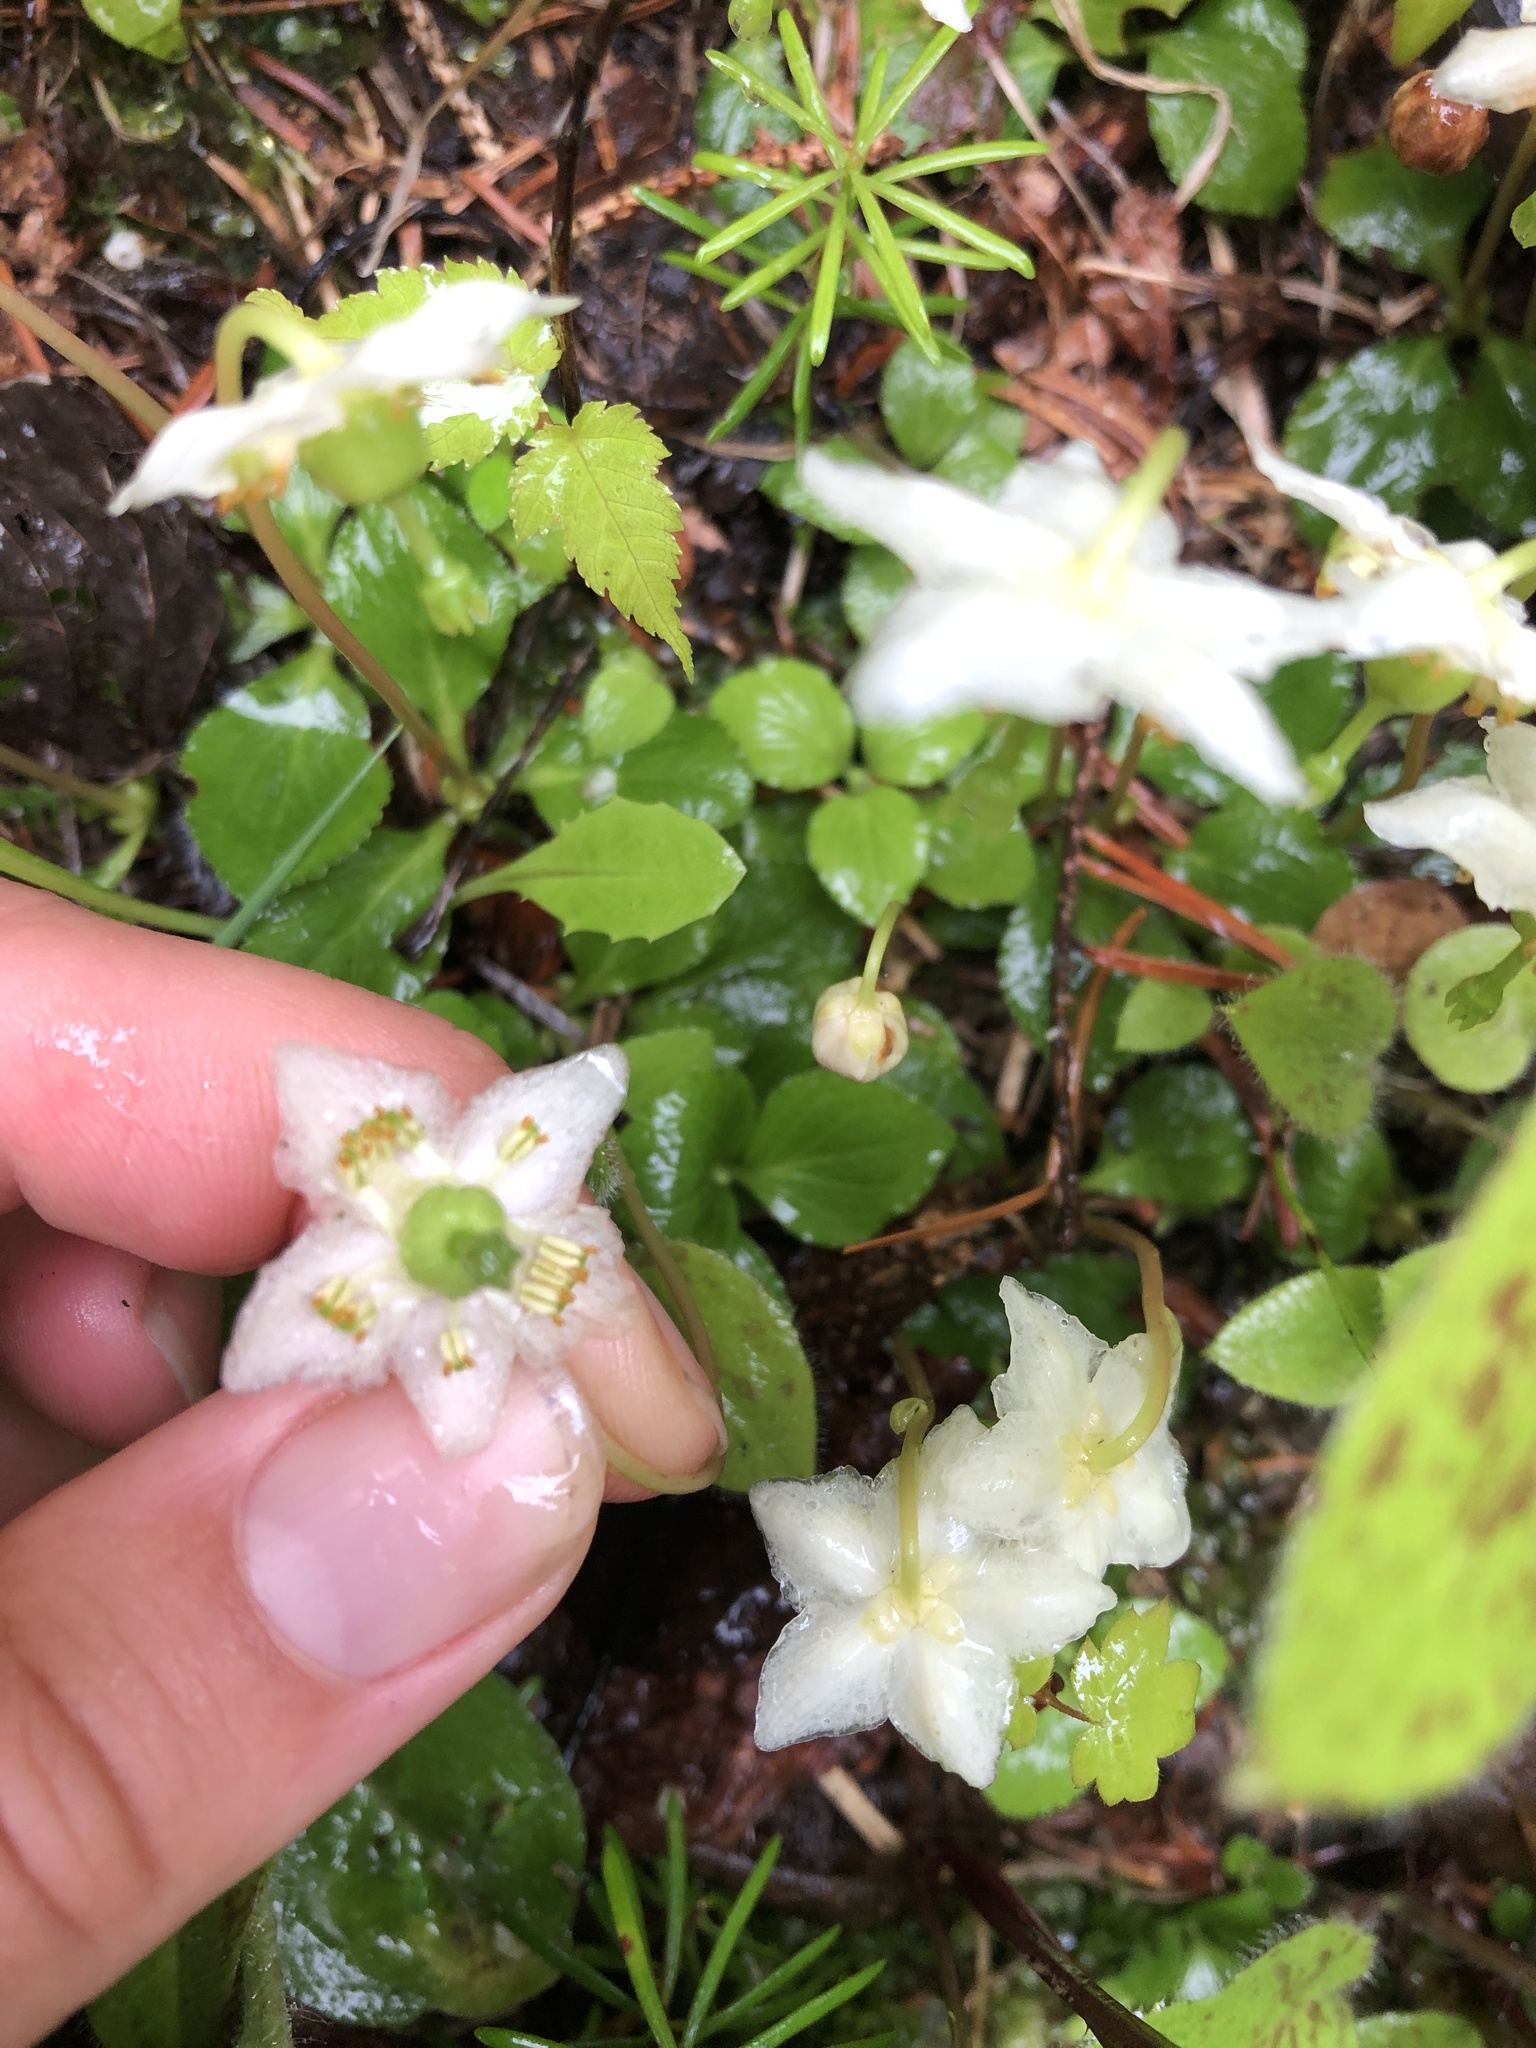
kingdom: Plantae
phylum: Tracheophyta
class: Magnoliopsida
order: Ericales
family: Ericaceae
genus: Moneses
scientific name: Moneses uniflora
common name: One-flowered wintergreen
